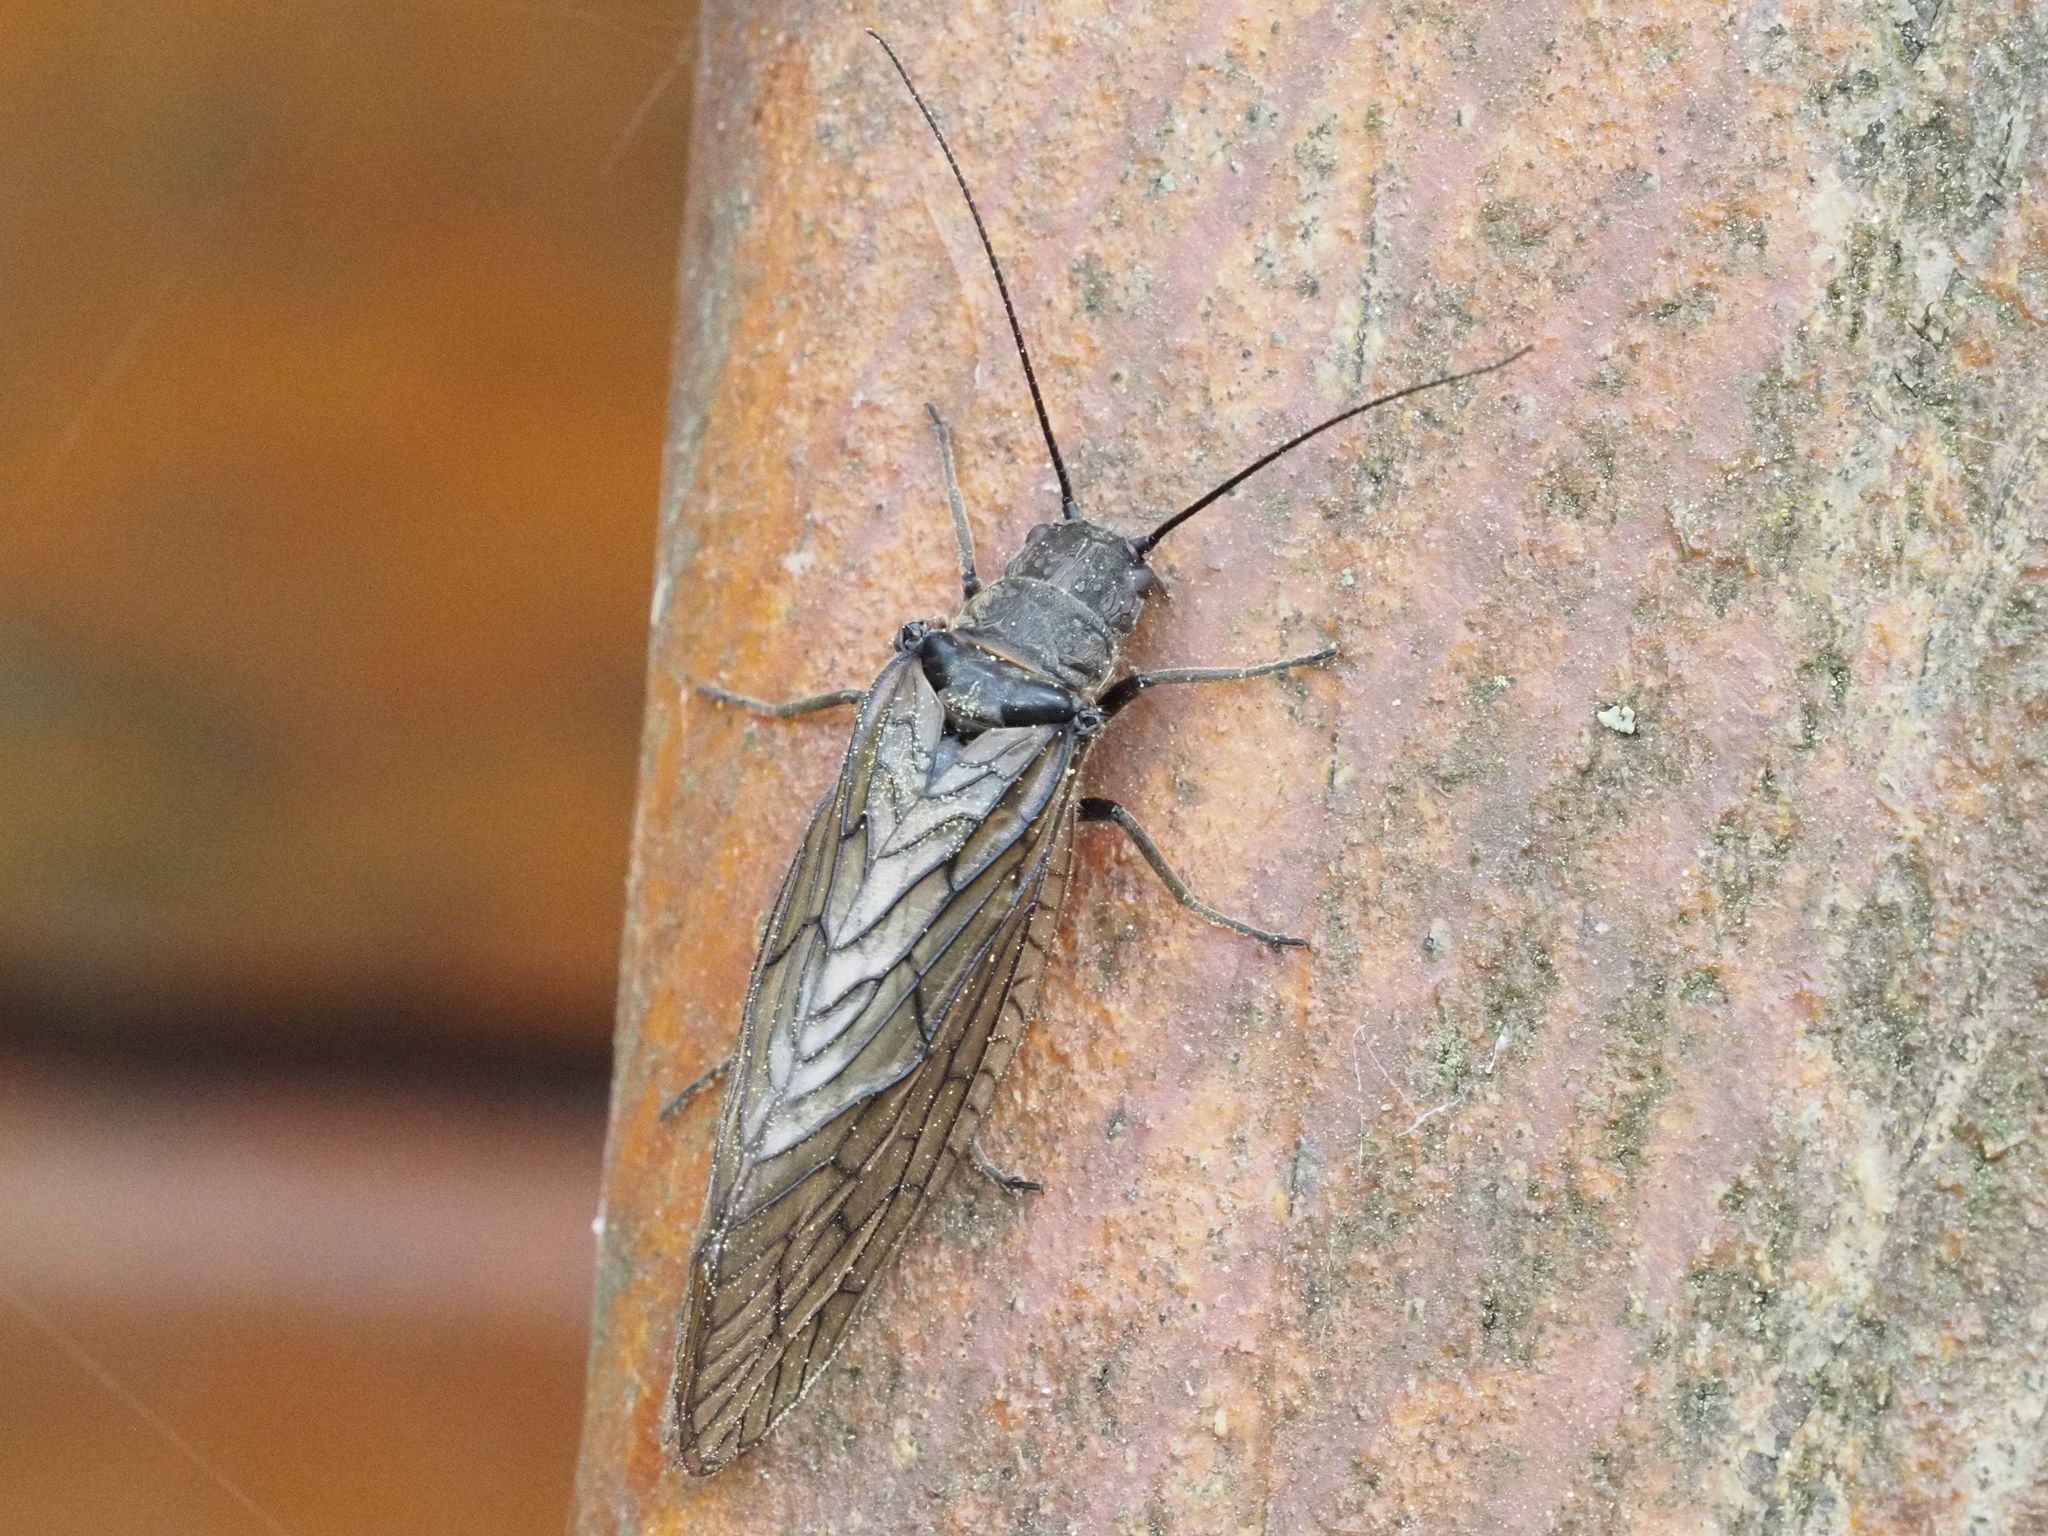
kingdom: Animalia
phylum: Arthropoda
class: Insecta
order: Megaloptera
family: Sialidae
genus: Sialis
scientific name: Sialis
